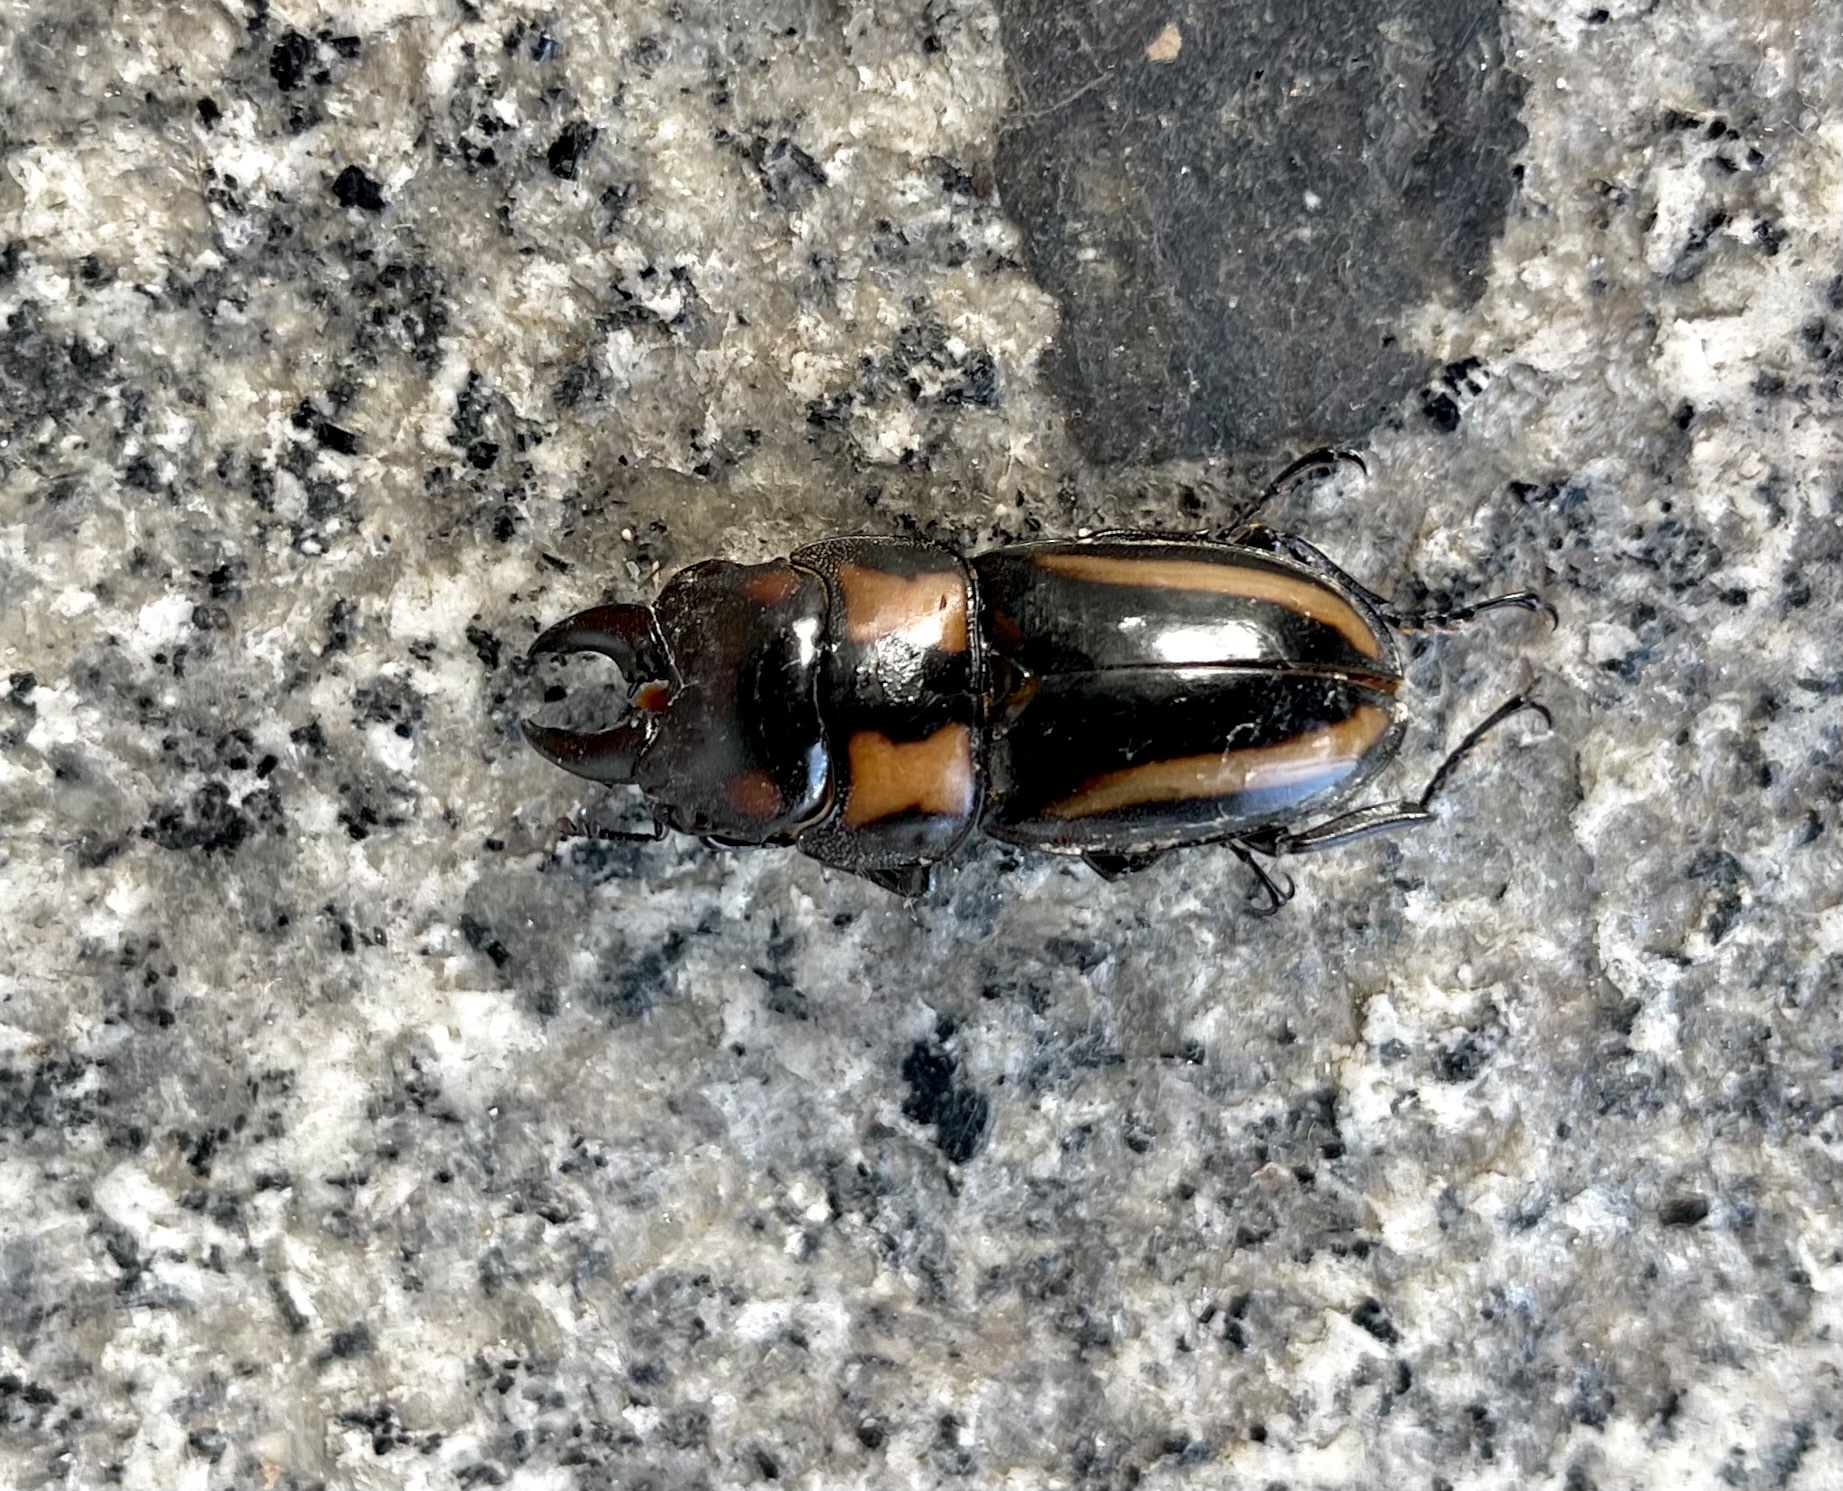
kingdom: Animalia
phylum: Arthropoda
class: Insecta
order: Coleoptera
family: Lucanidae
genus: Prosopocoilus
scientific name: Prosopocoilus biplagiatus
